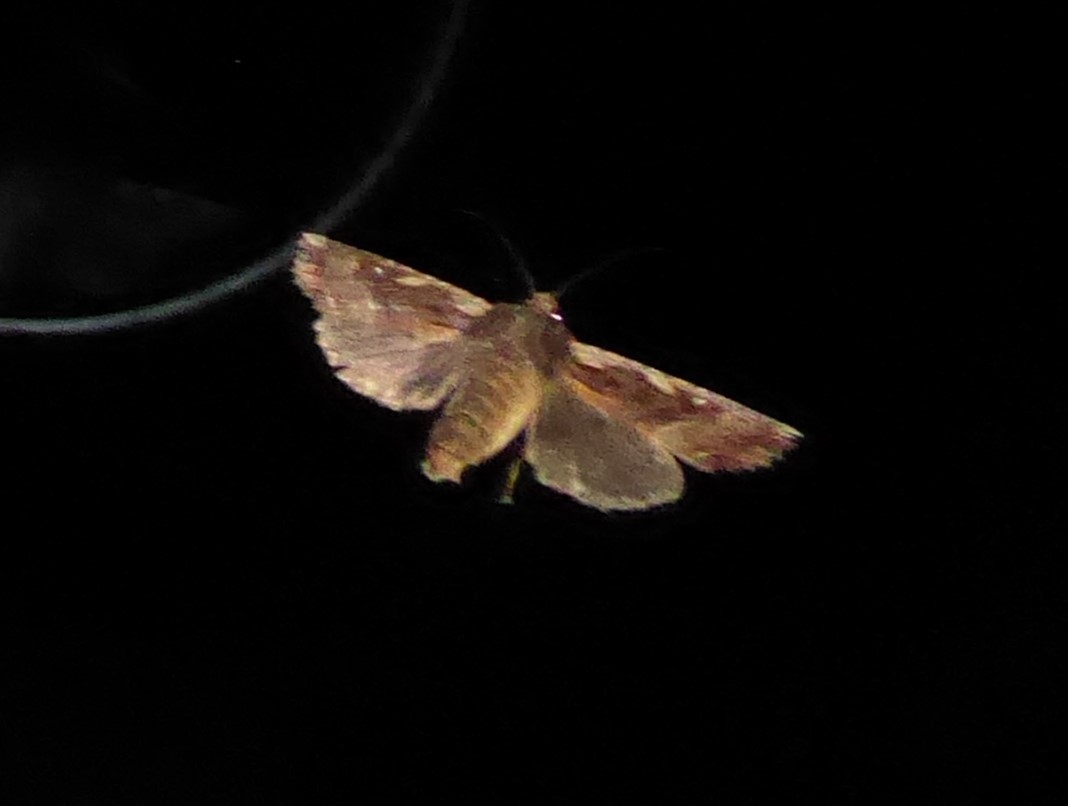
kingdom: Animalia
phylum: Arthropoda
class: Insecta
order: Lepidoptera
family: Noctuidae
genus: Meterana
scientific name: Meterana stipata
